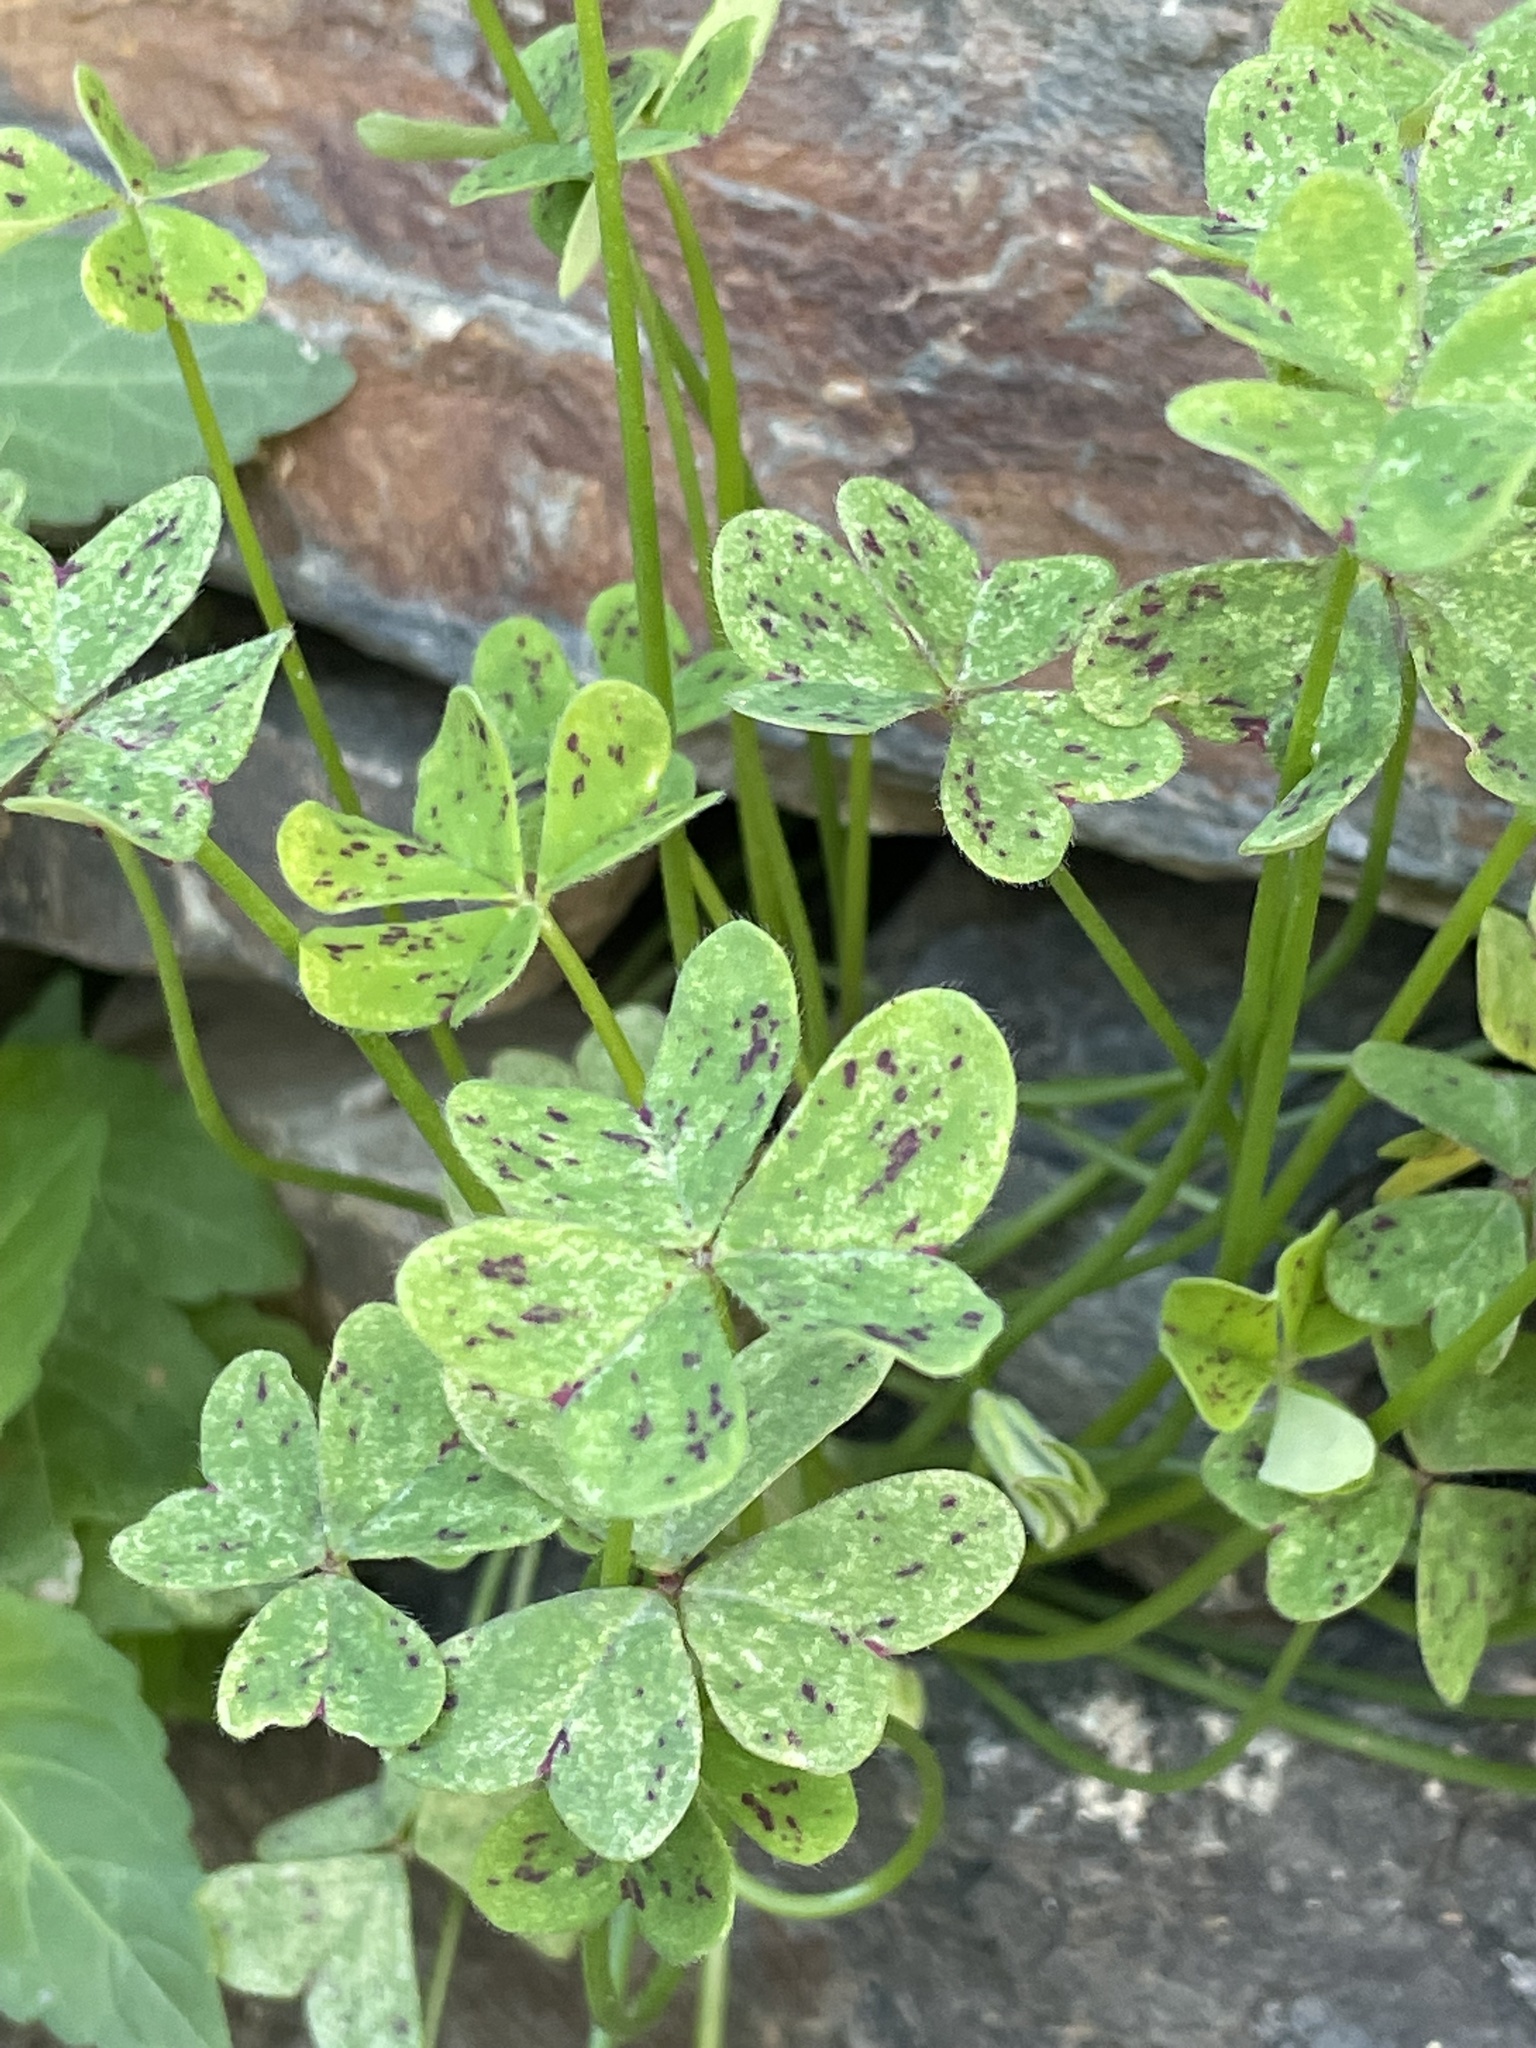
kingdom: Plantae
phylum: Tracheophyta
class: Magnoliopsida
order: Oxalidales
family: Oxalidaceae
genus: Oxalis
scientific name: Oxalis pes-caprae
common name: Bermuda-buttercup
